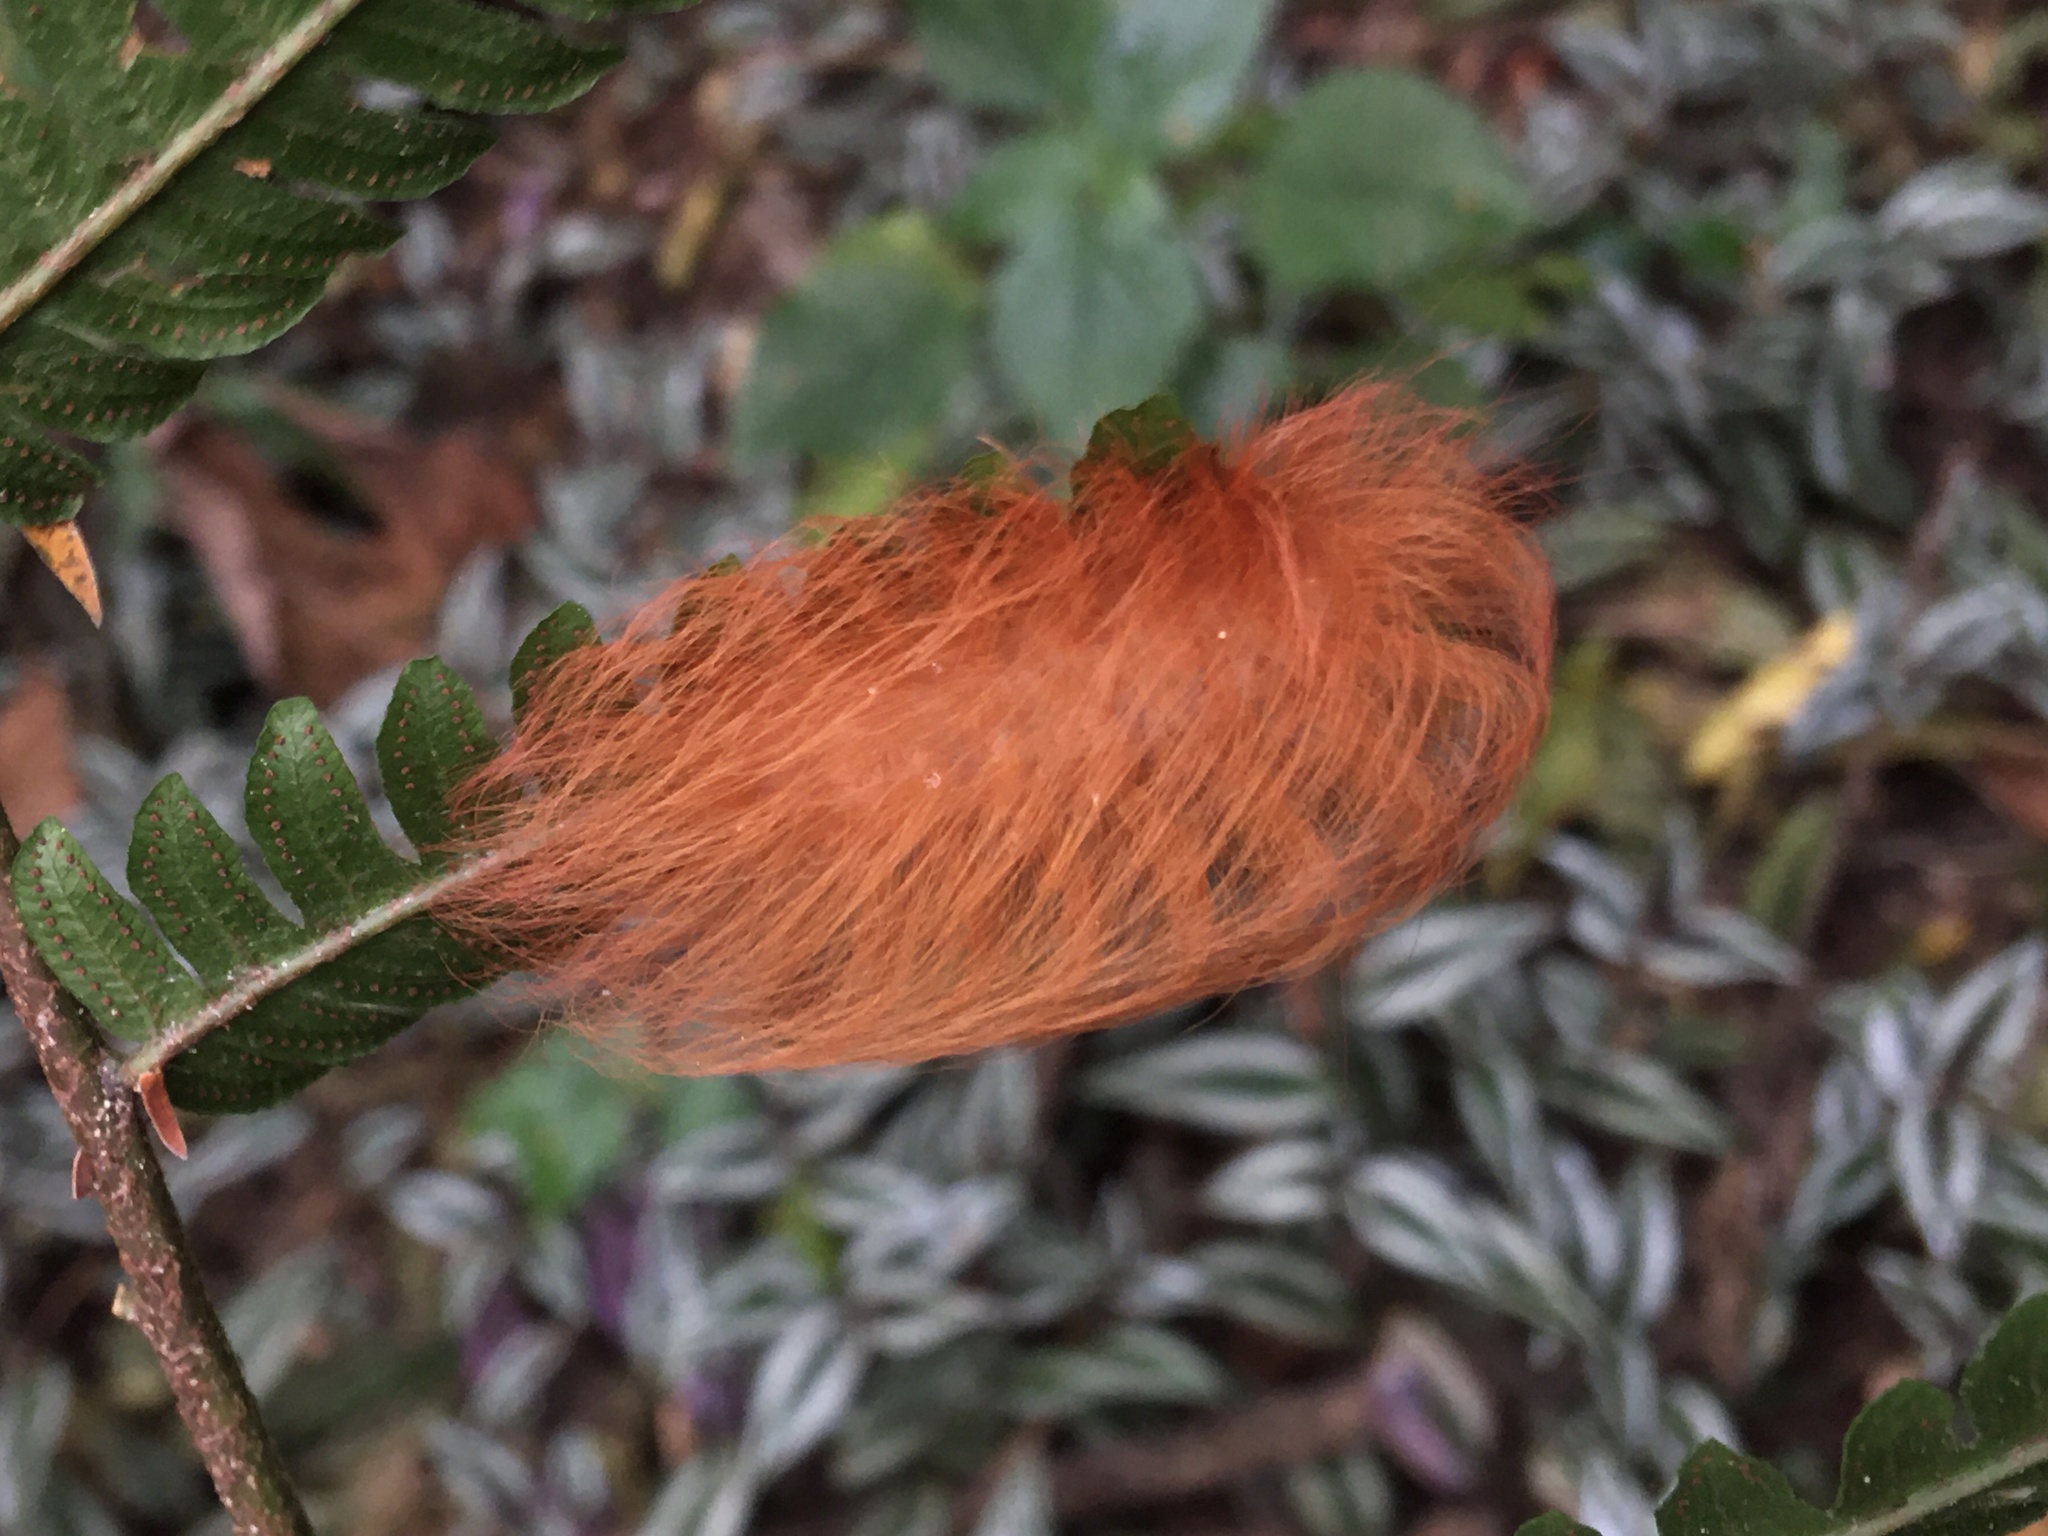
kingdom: Animalia
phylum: Arthropoda
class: Insecta
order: Lepidoptera
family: Megalopygidae
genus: Megalopyge
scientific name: Megalopyge albicollis
